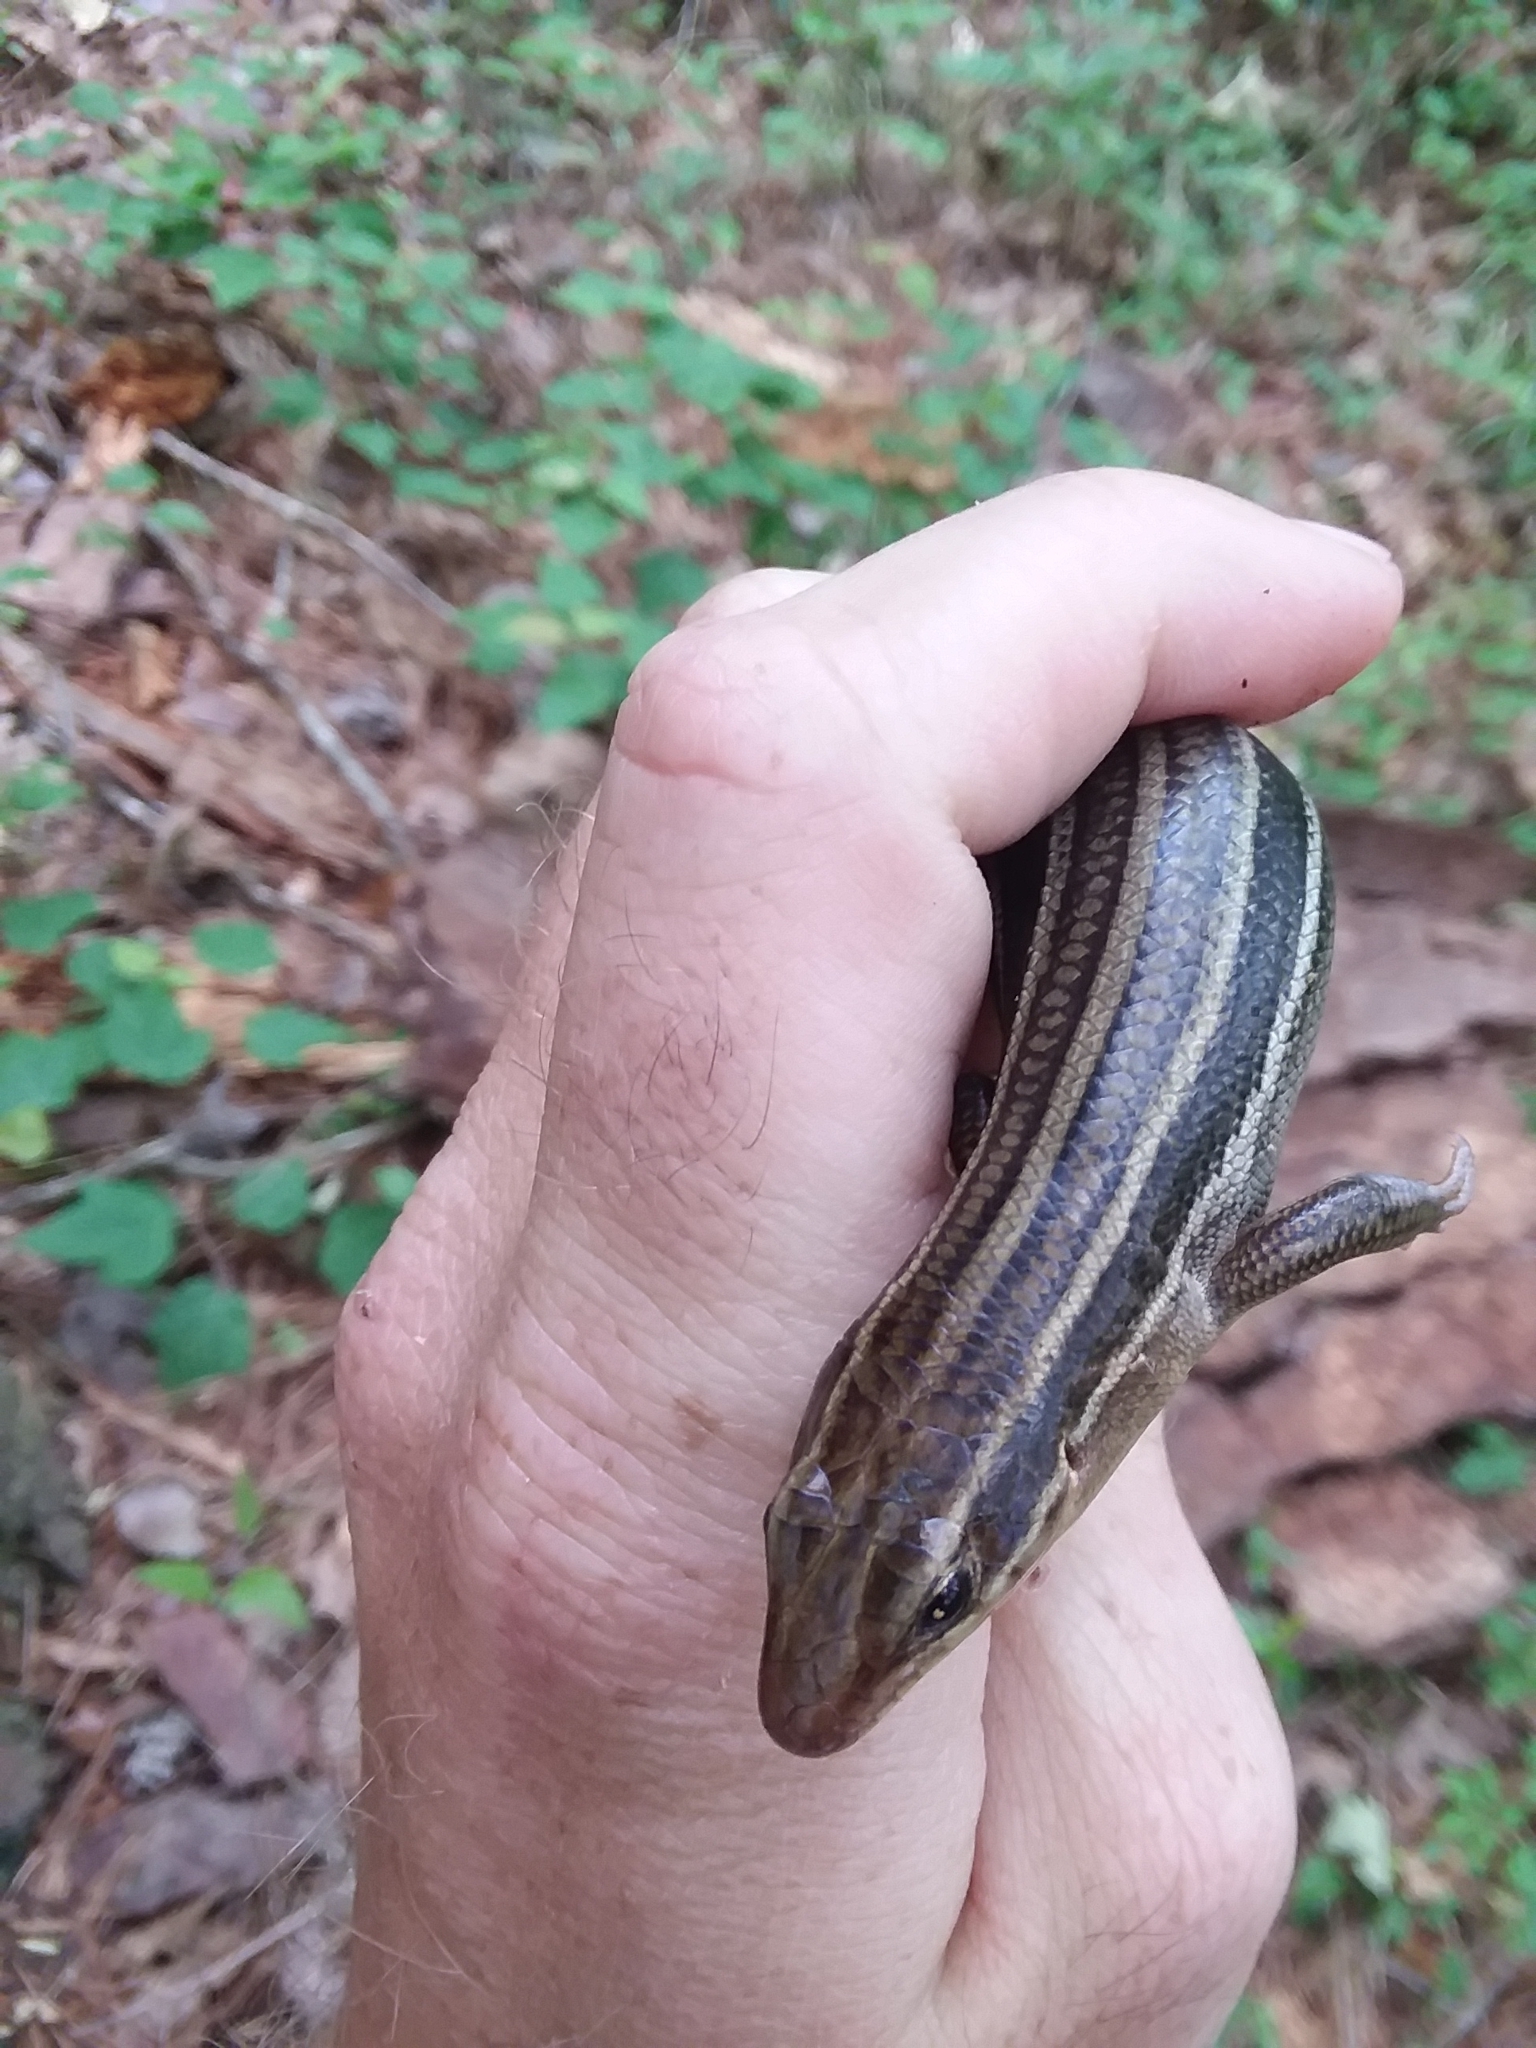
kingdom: Animalia
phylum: Chordata
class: Squamata
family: Scincidae
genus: Plestiodon
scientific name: Plestiodon laticeps
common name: Broadhead skink
